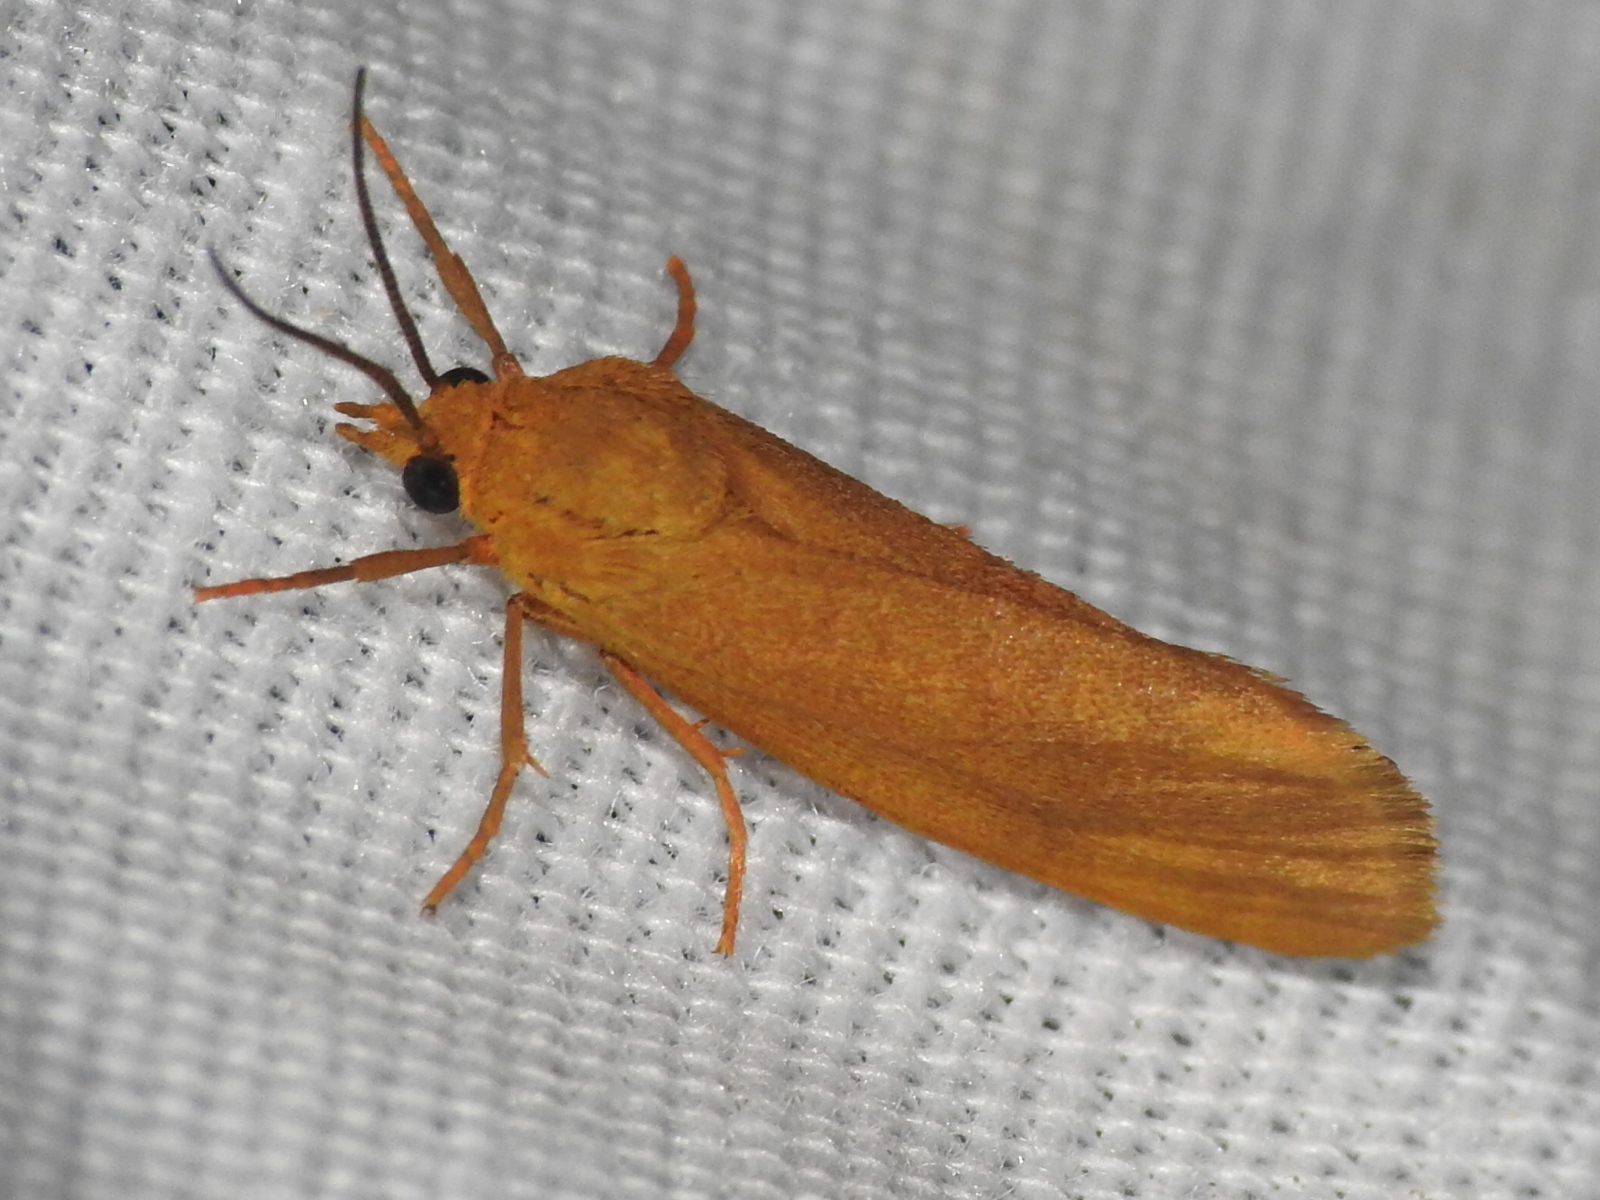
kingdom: Animalia
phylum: Arthropoda
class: Insecta
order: Lepidoptera
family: Erebidae
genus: Virbia
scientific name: Virbia aurantiaca
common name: Orange virbia moth
